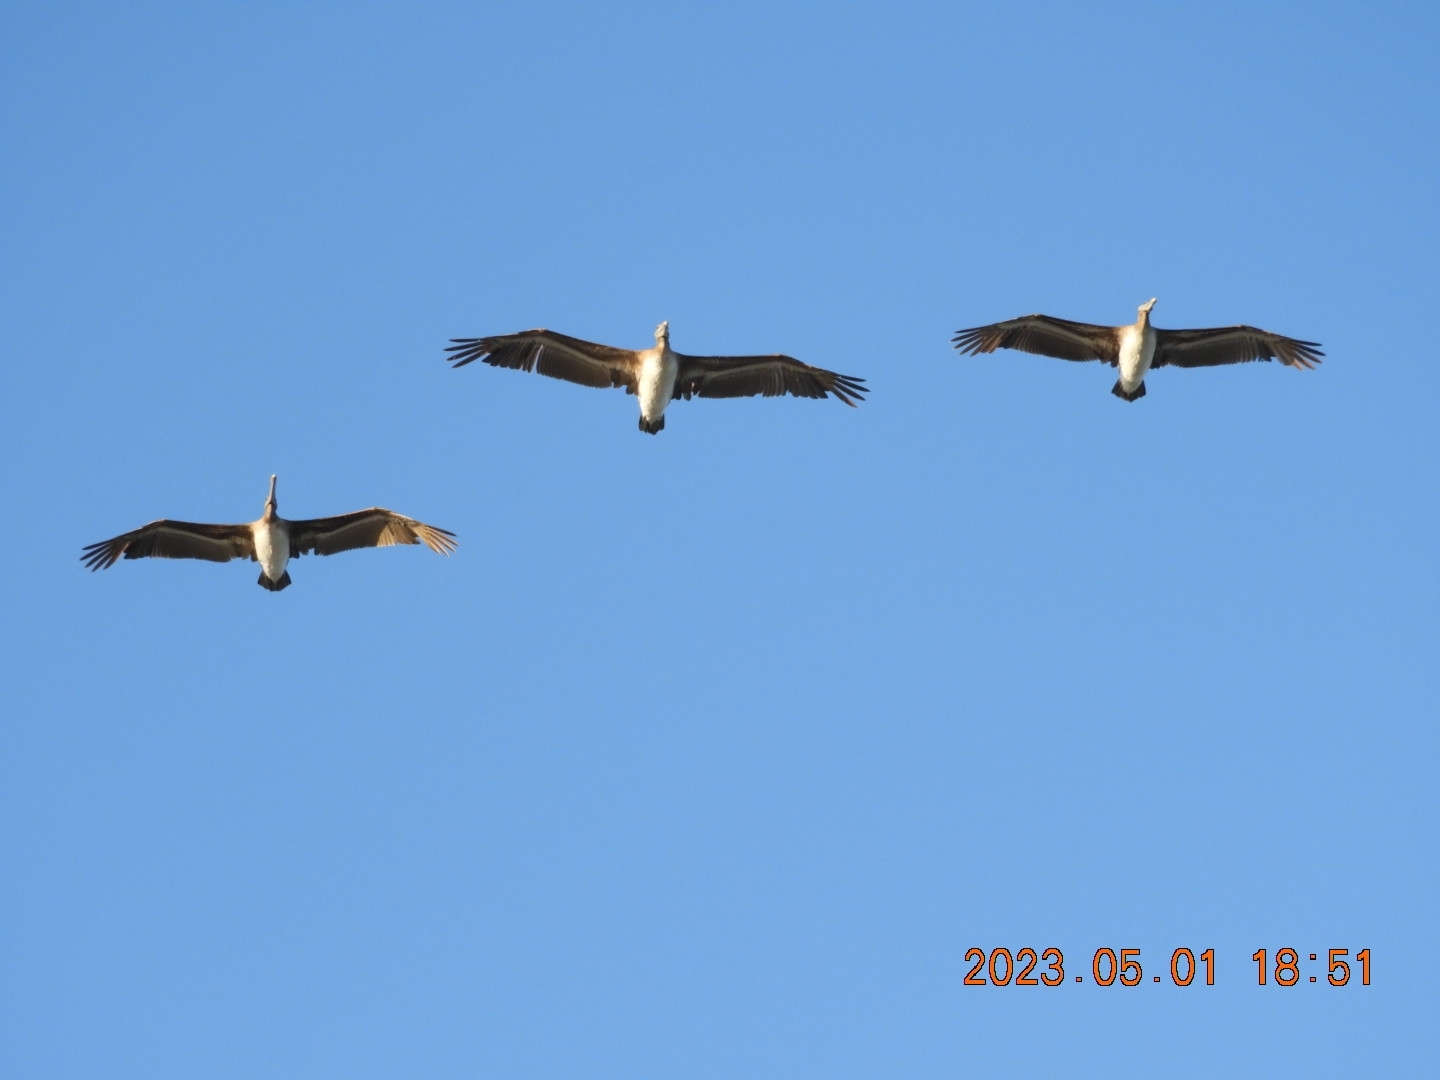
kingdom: Animalia
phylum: Chordata
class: Aves
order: Pelecaniformes
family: Pelecanidae
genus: Pelecanus
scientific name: Pelecanus occidentalis
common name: Brown pelican
